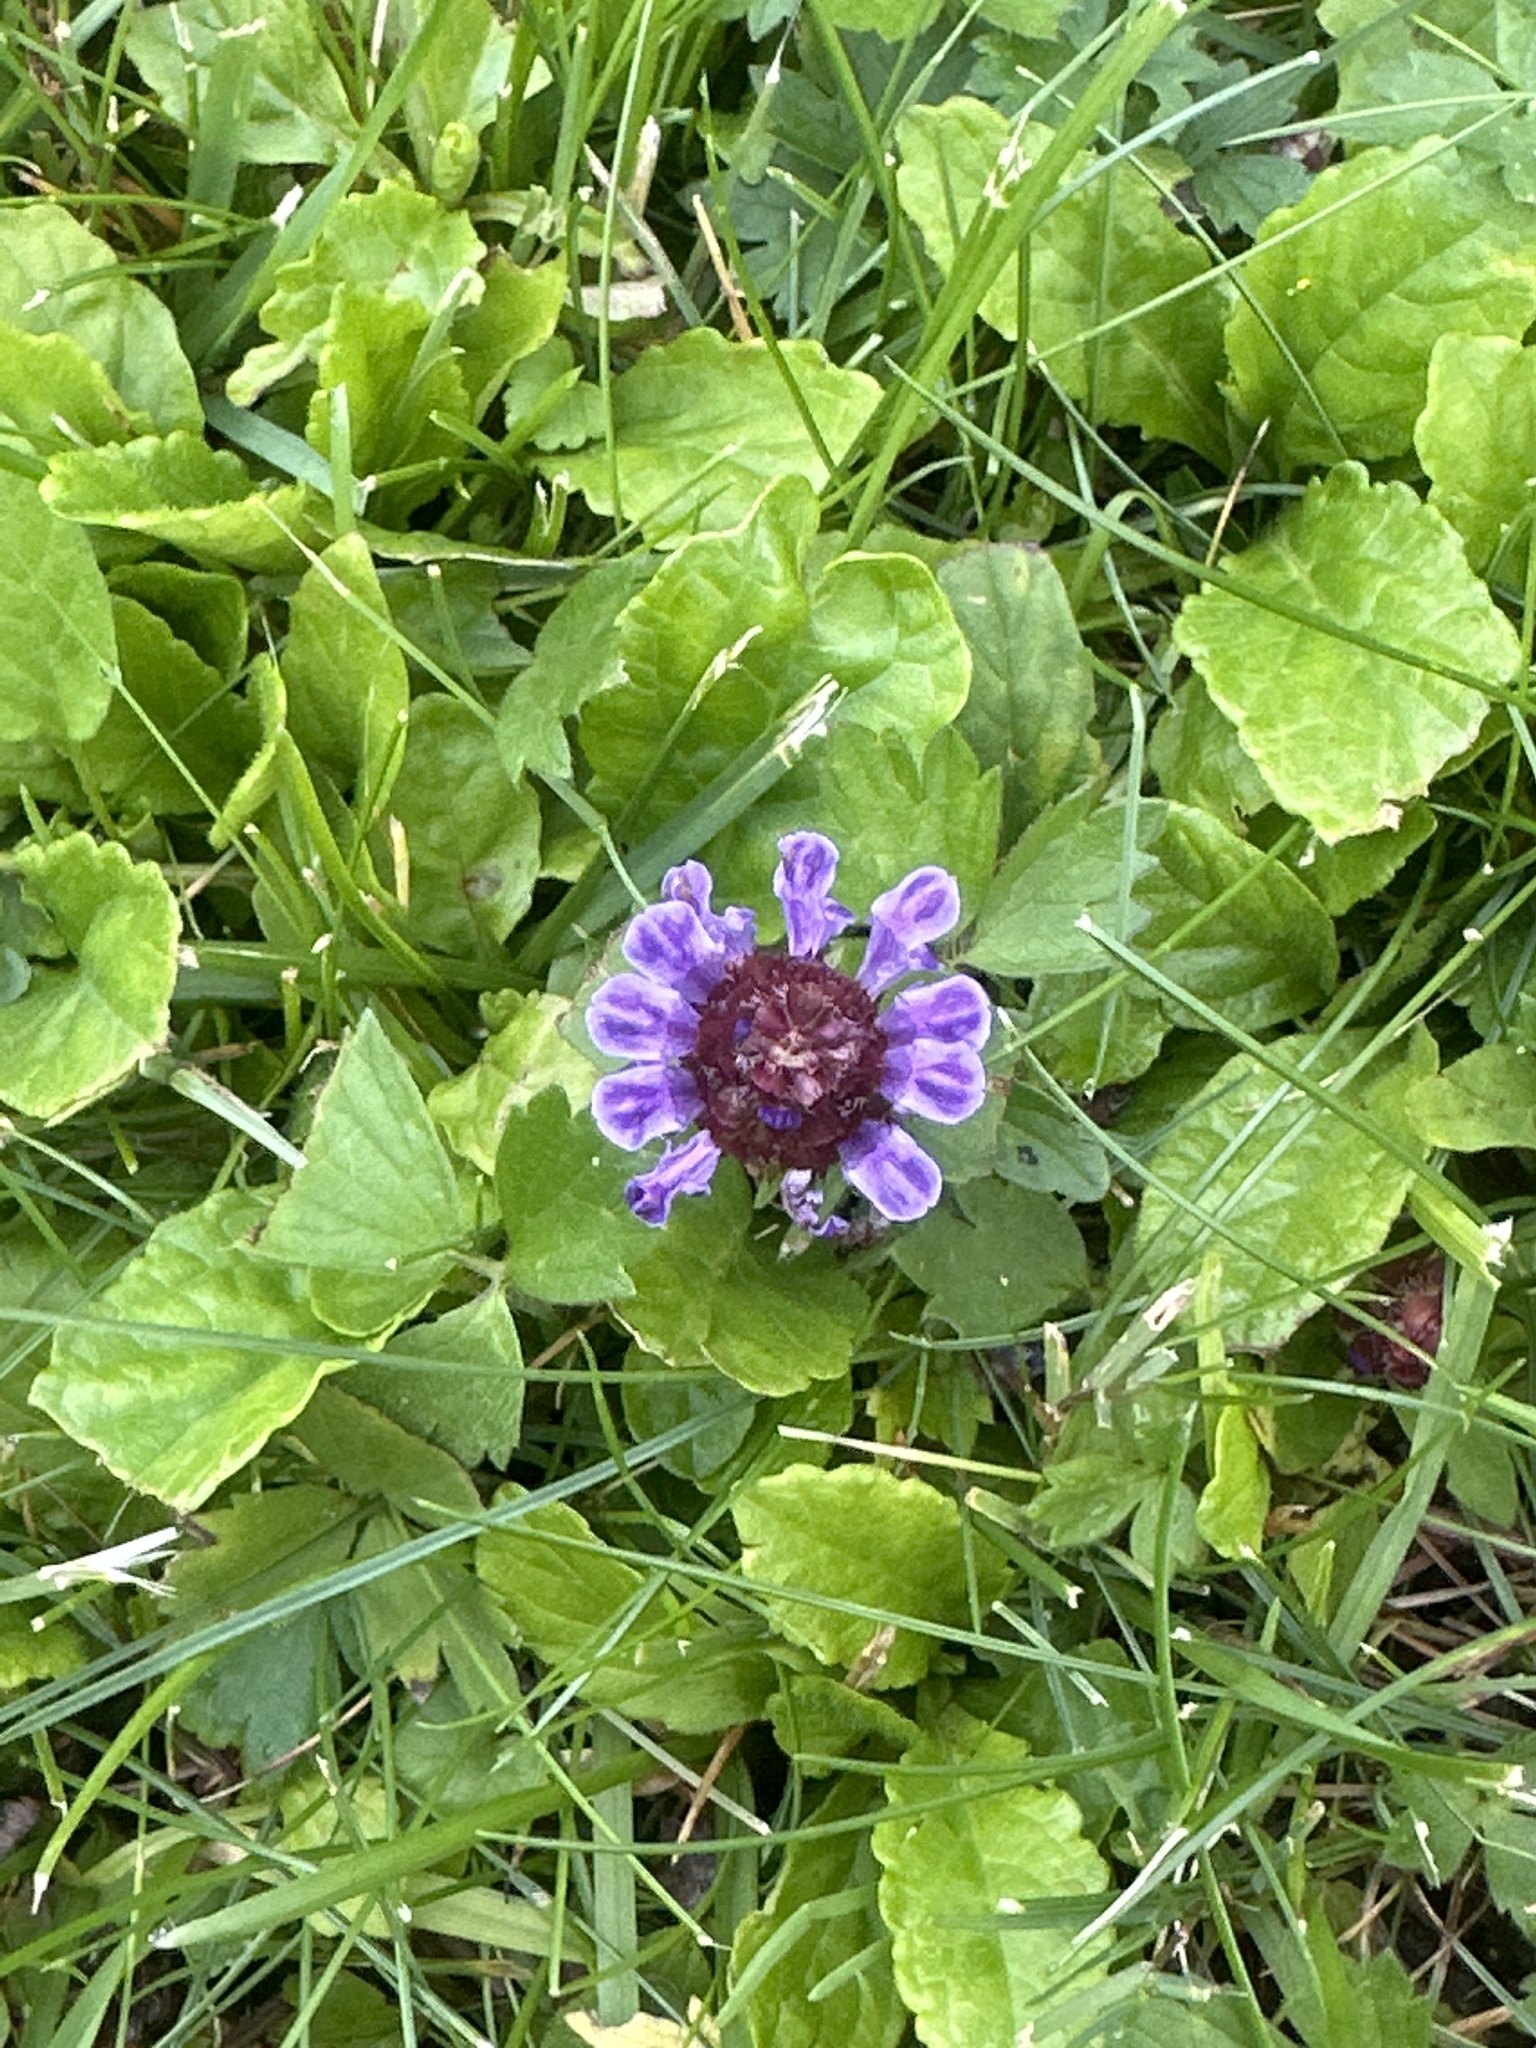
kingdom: Plantae
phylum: Tracheophyta
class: Magnoliopsida
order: Lamiales
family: Lamiaceae
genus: Prunella
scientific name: Prunella vulgaris
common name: Heal-all
